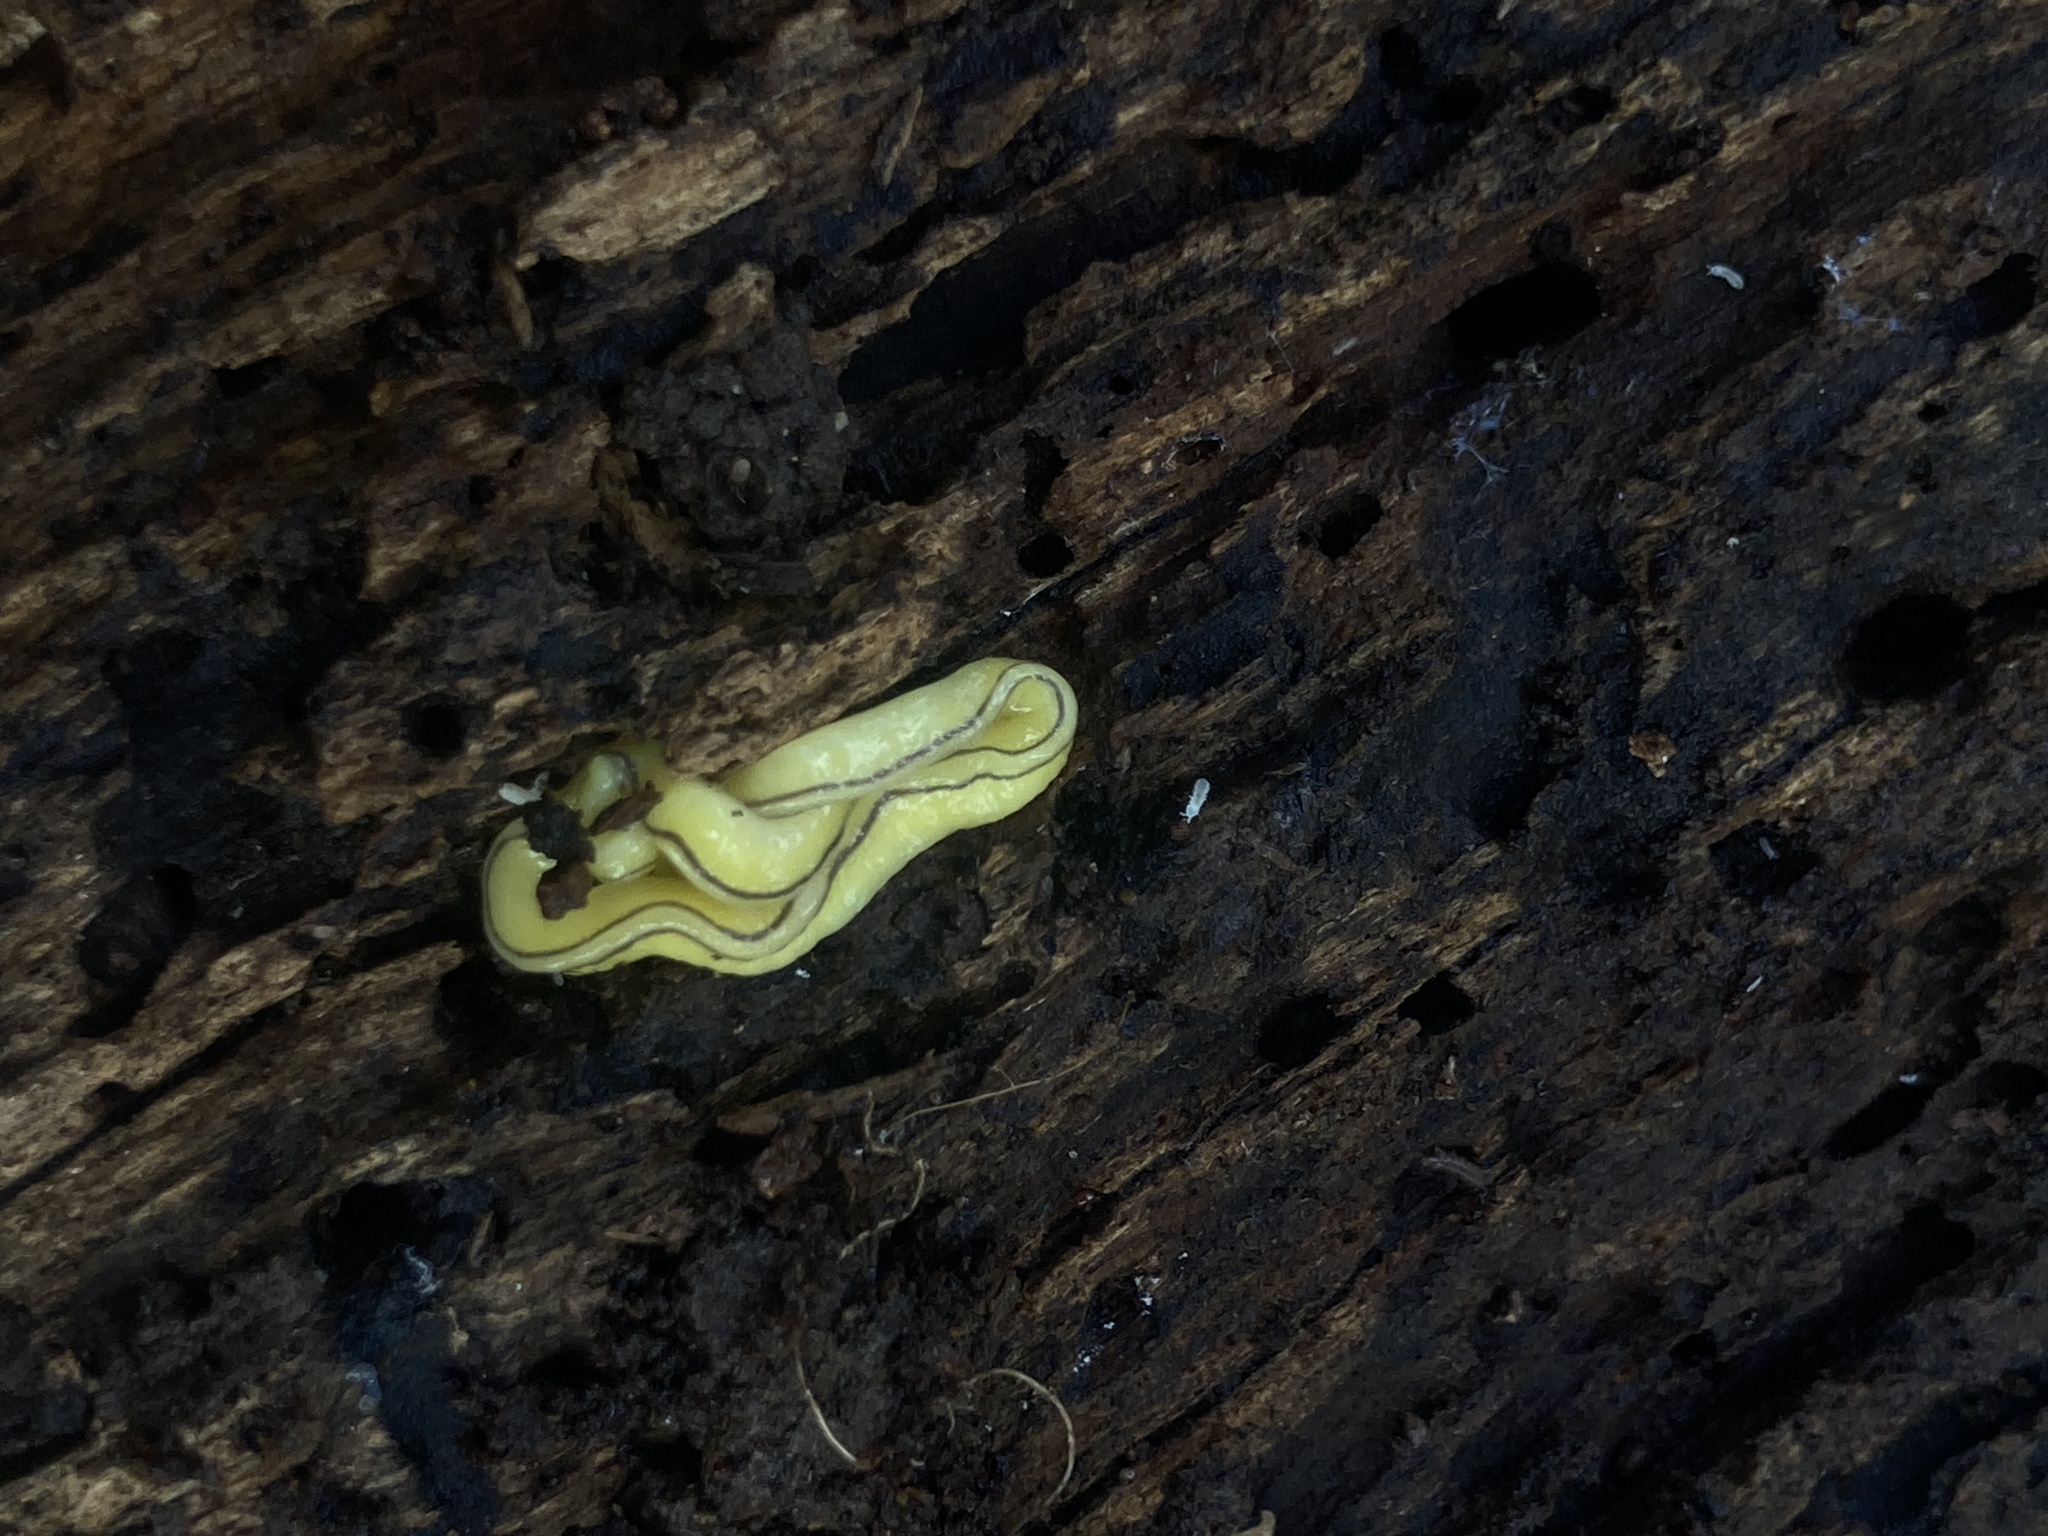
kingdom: Animalia
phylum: Platyhelminthes
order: Tricladida
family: Geoplanidae
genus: Caenoplana
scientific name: Caenoplana hillii
